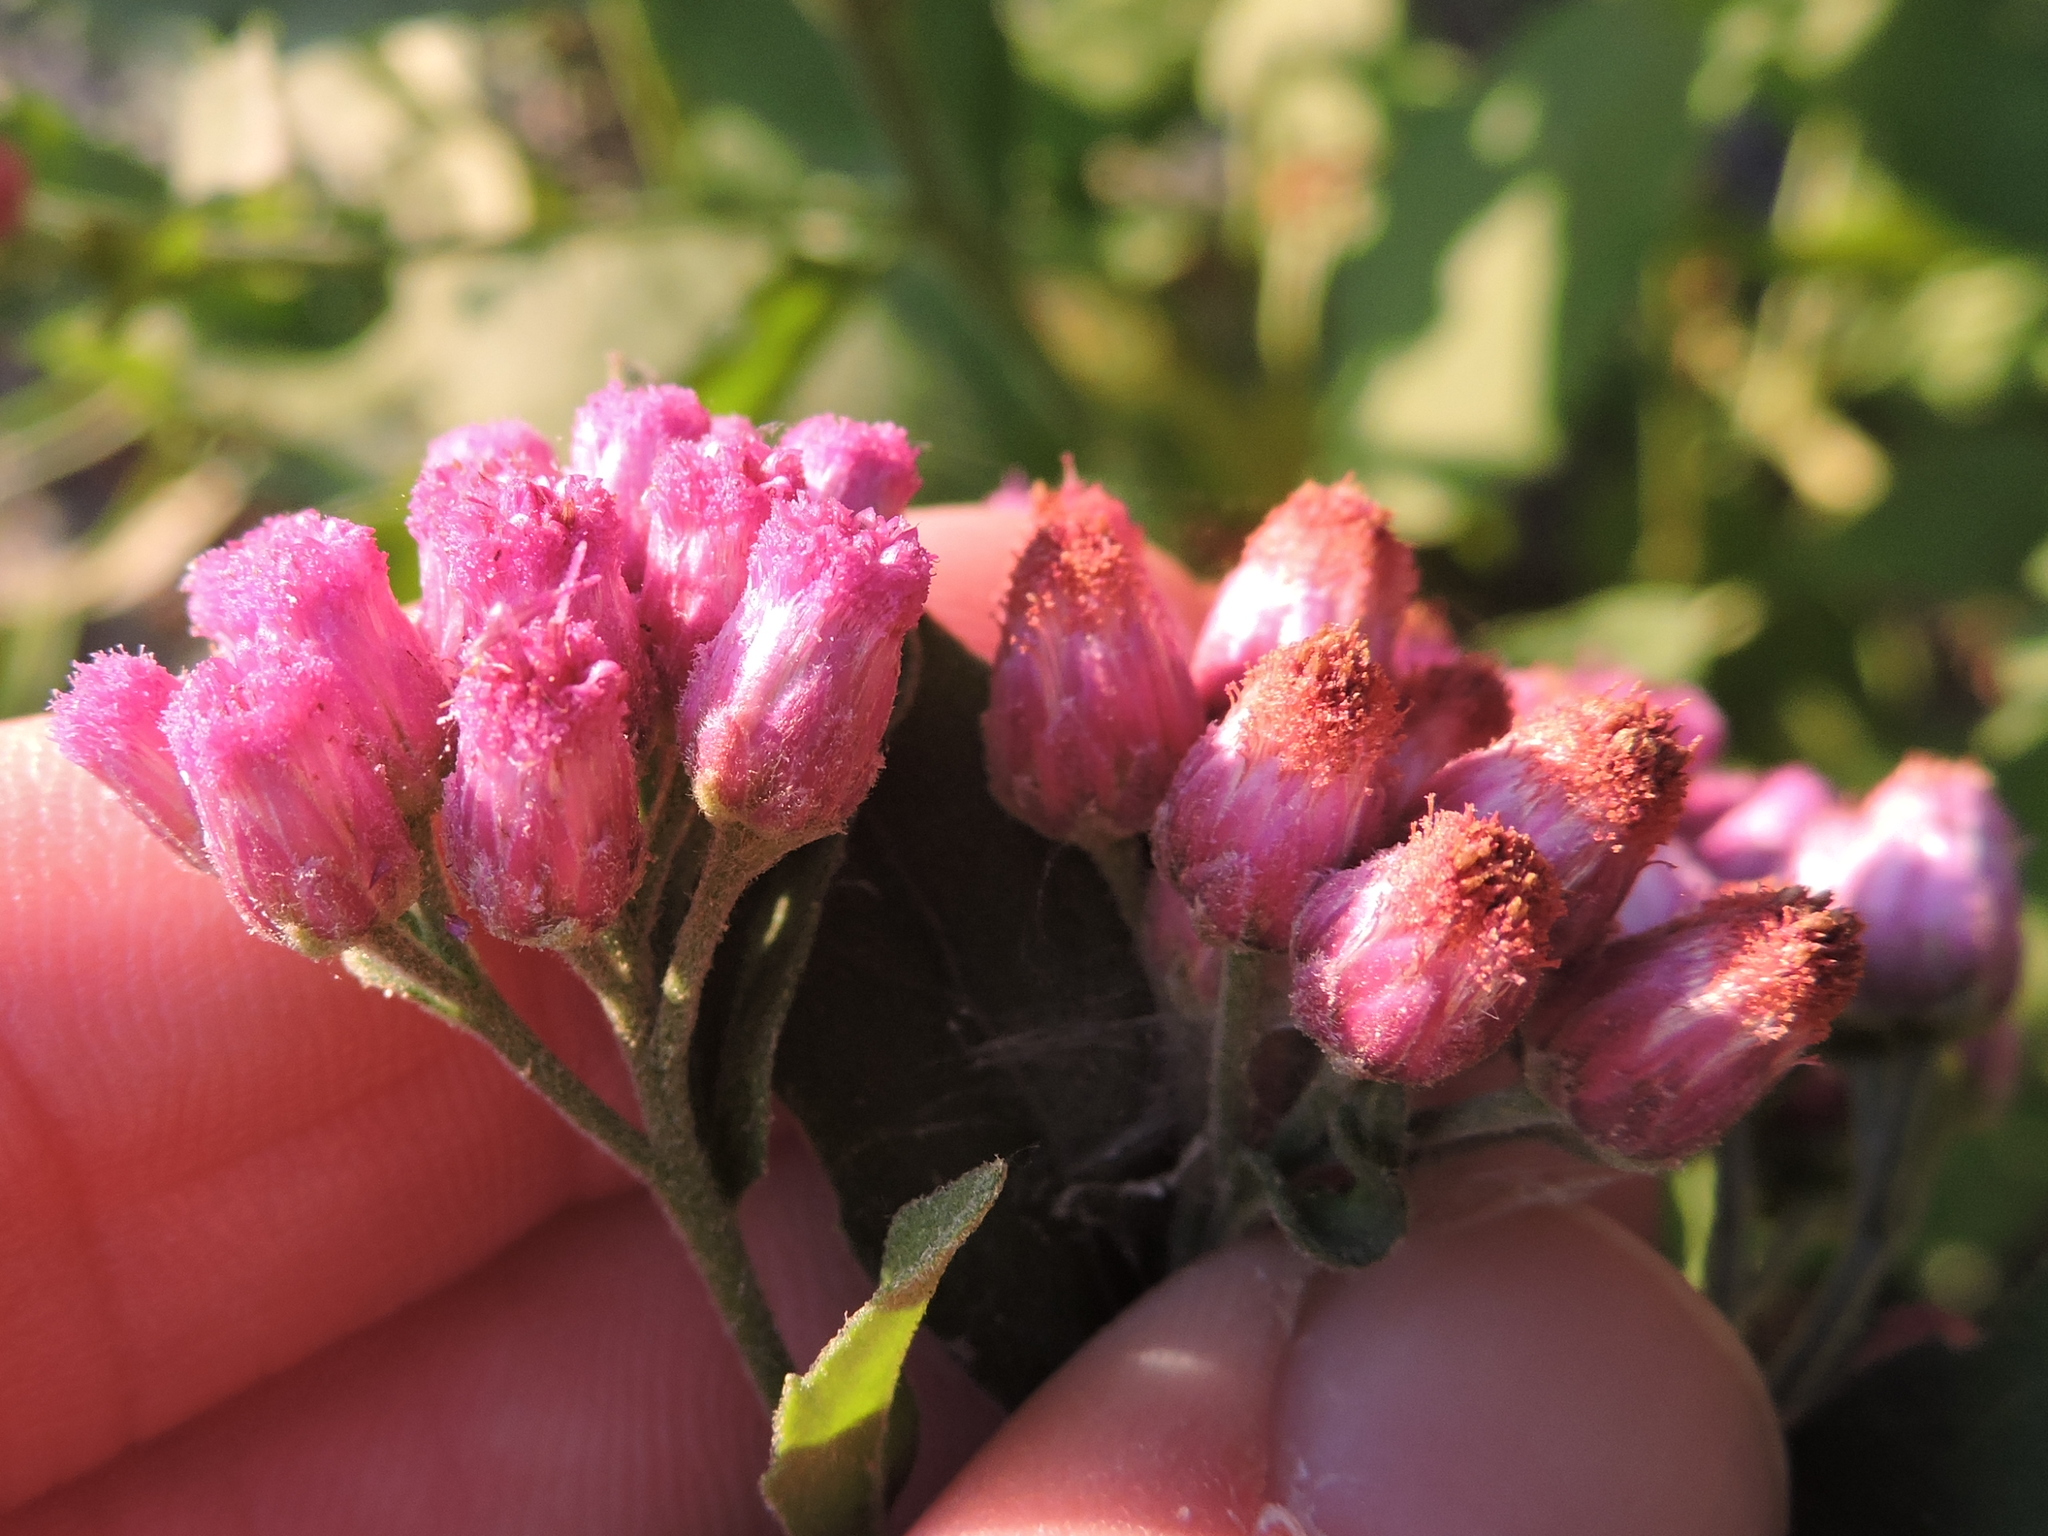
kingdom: Plantae
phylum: Tracheophyta
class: Magnoliopsida
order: Asterales
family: Asteraceae
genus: Pluchea
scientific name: Pluchea odorata
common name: Saltmarsh fleabane
